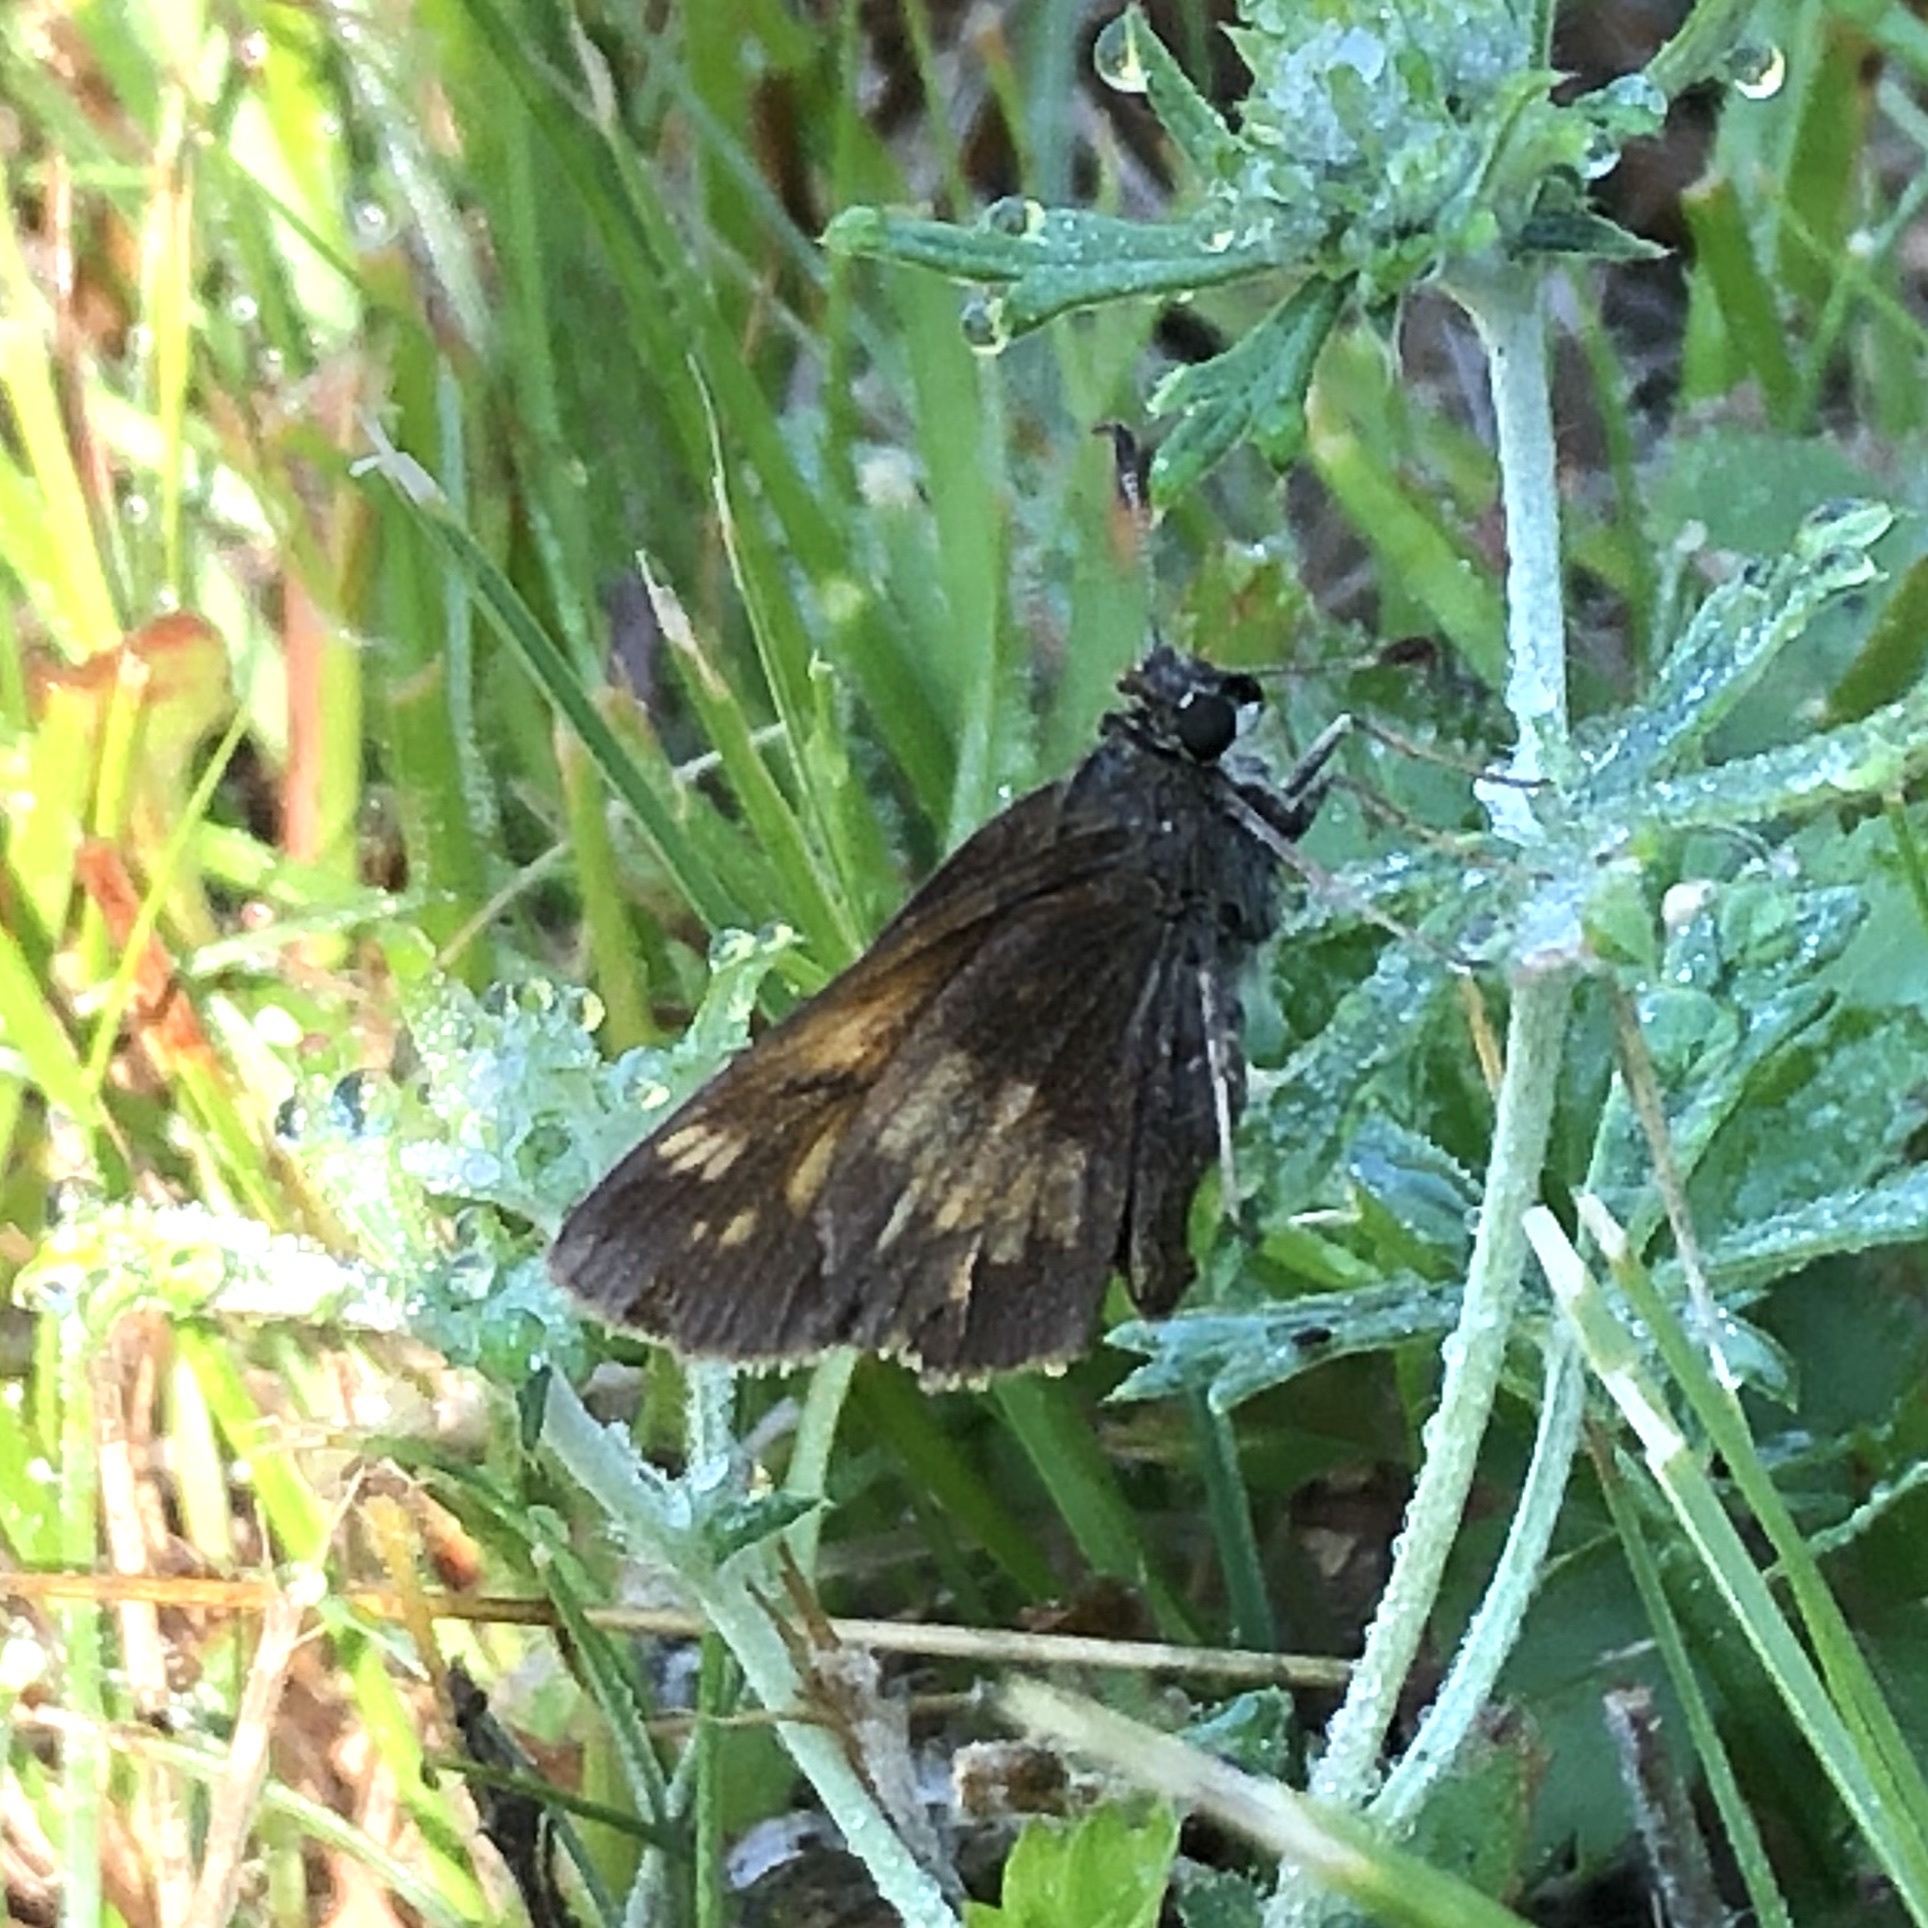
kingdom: Animalia
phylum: Arthropoda
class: Insecta
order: Lepidoptera
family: Hesperiidae
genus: Lon
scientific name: Lon hobomok
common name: Hobomok skipper
